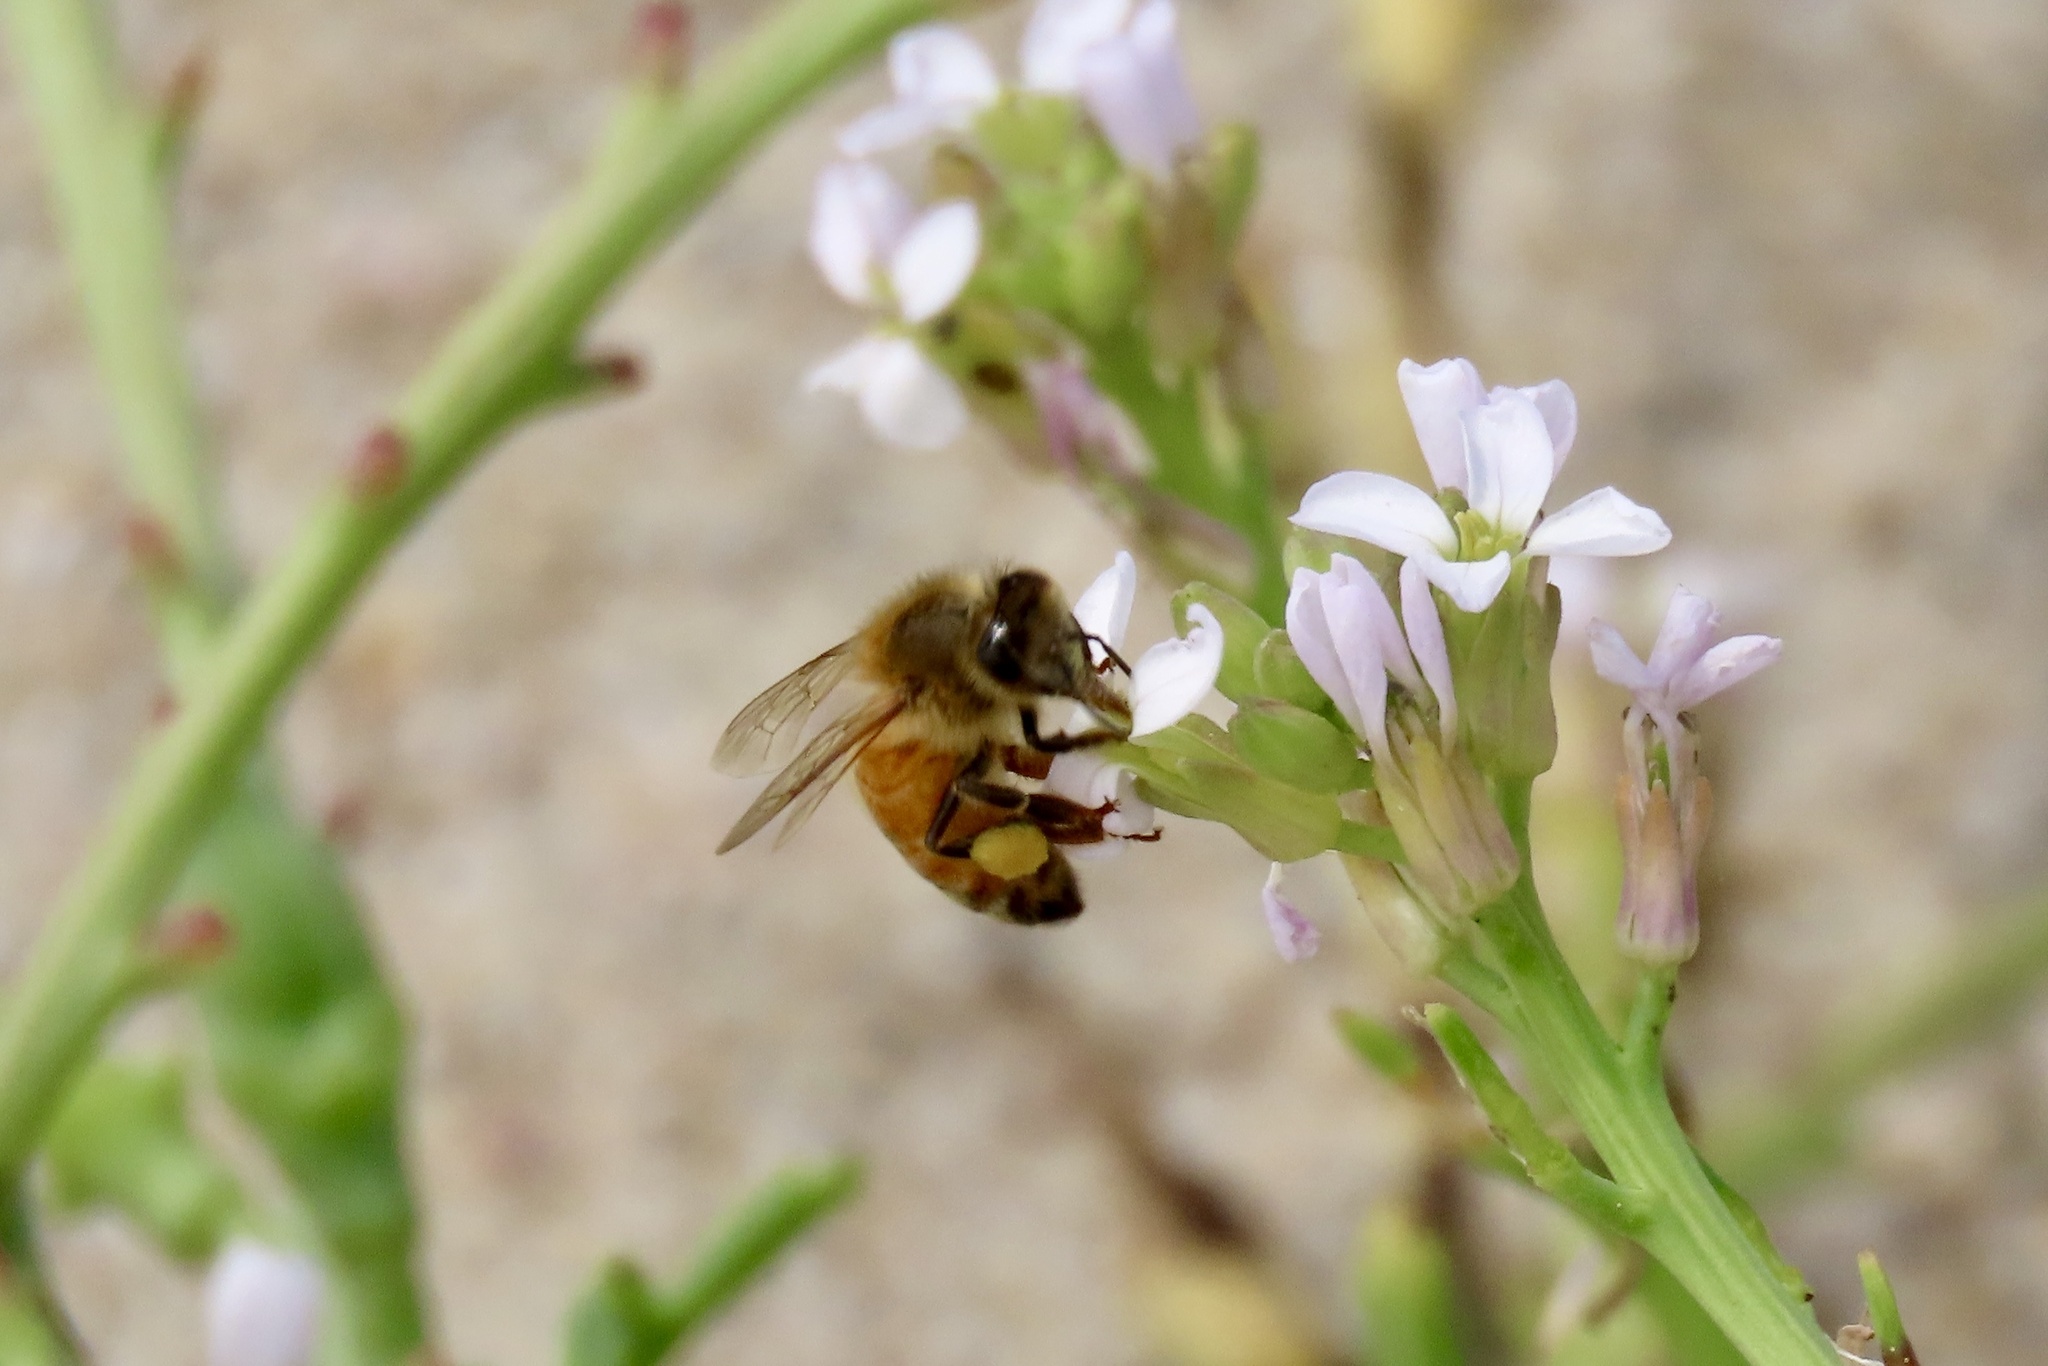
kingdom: Animalia
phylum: Arthropoda
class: Insecta
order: Hymenoptera
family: Apidae
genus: Apis
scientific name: Apis mellifera
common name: Honey bee
